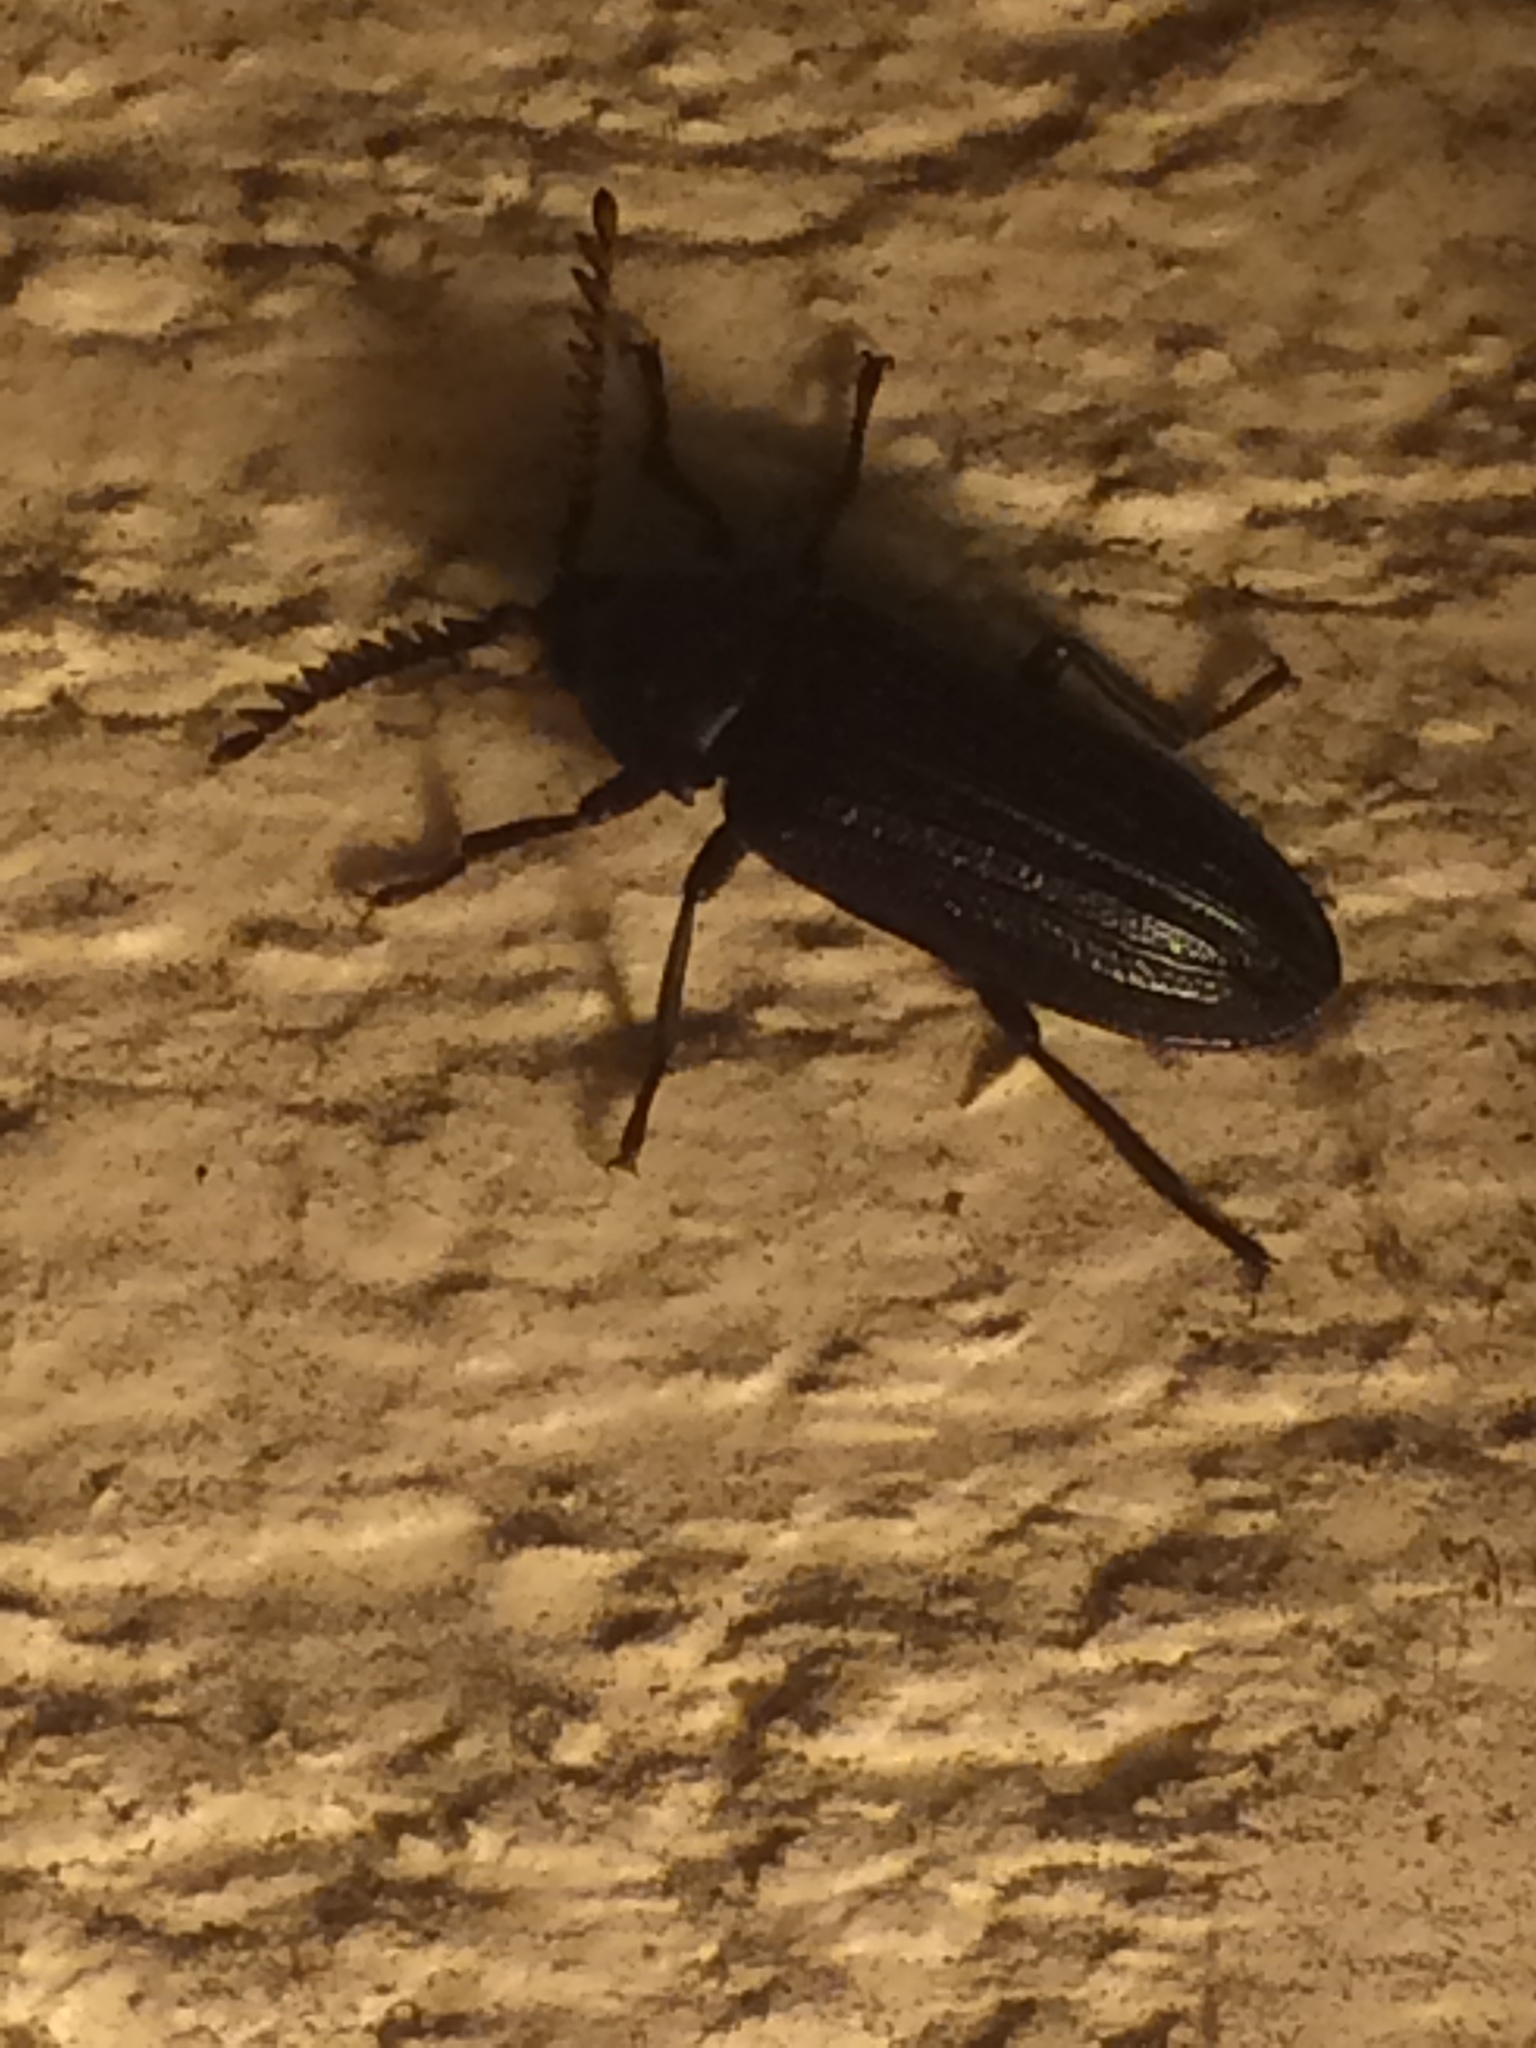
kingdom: Animalia
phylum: Arthropoda
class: Insecta
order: Coleoptera
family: Callirhipidae
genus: Zenoa
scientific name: Zenoa picea
